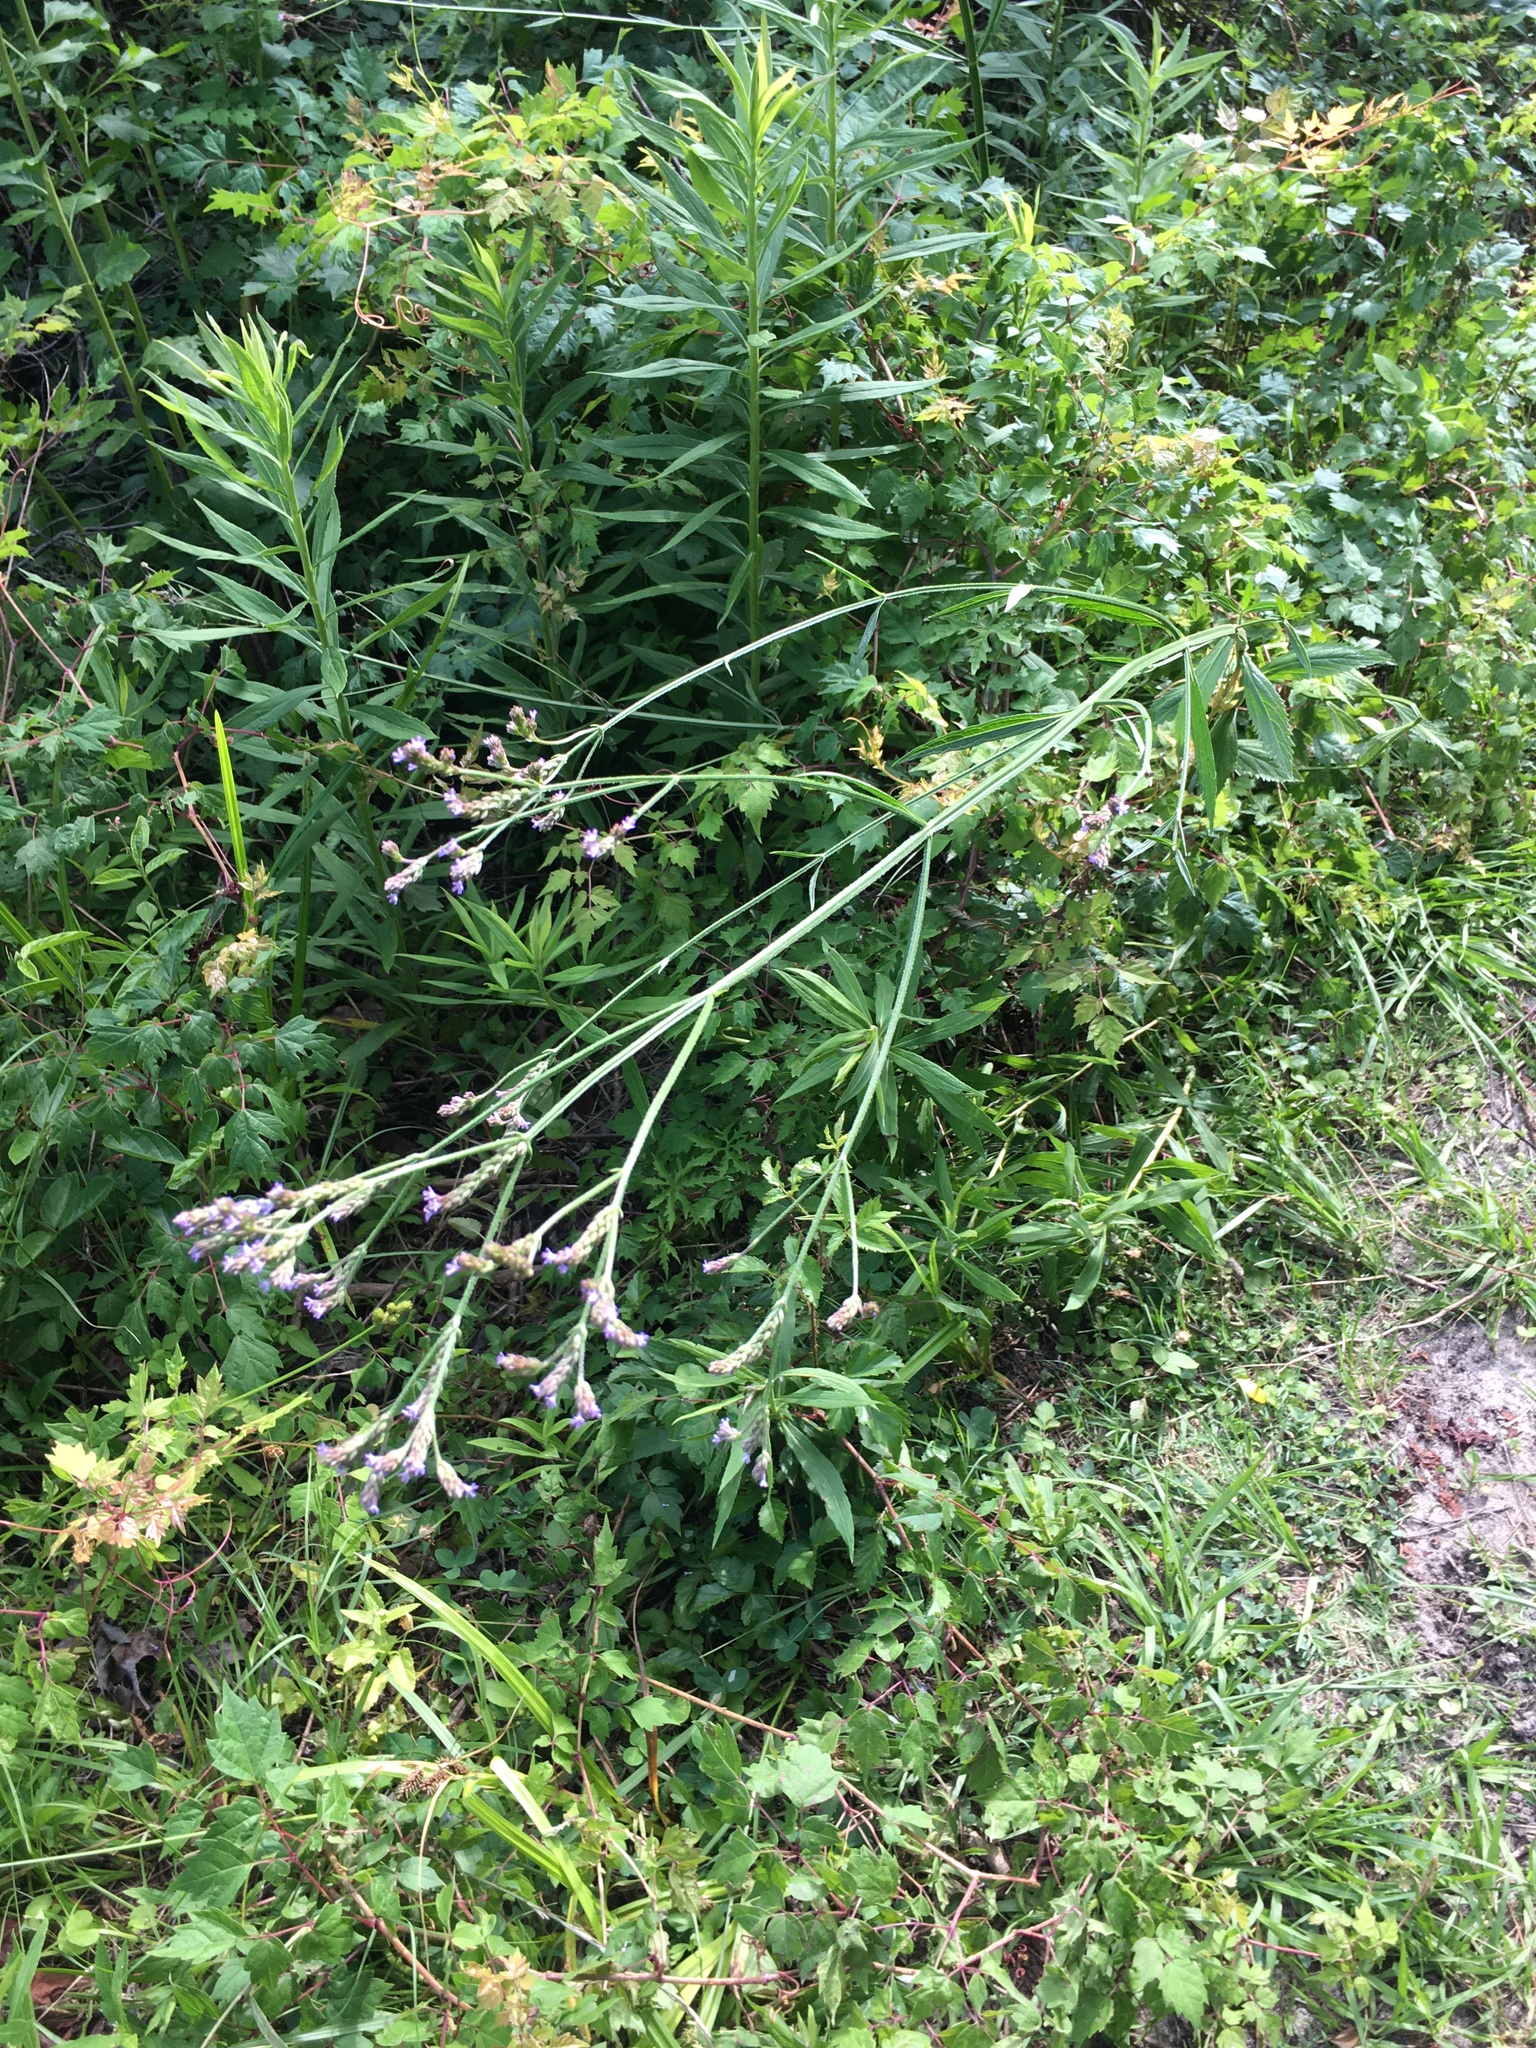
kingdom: Plantae
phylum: Tracheophyta
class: Magnoliopsida
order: Lamiales
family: Verbenaceae
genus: Verbena
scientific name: Verbena brasiliensis
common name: Brazilian vervain
